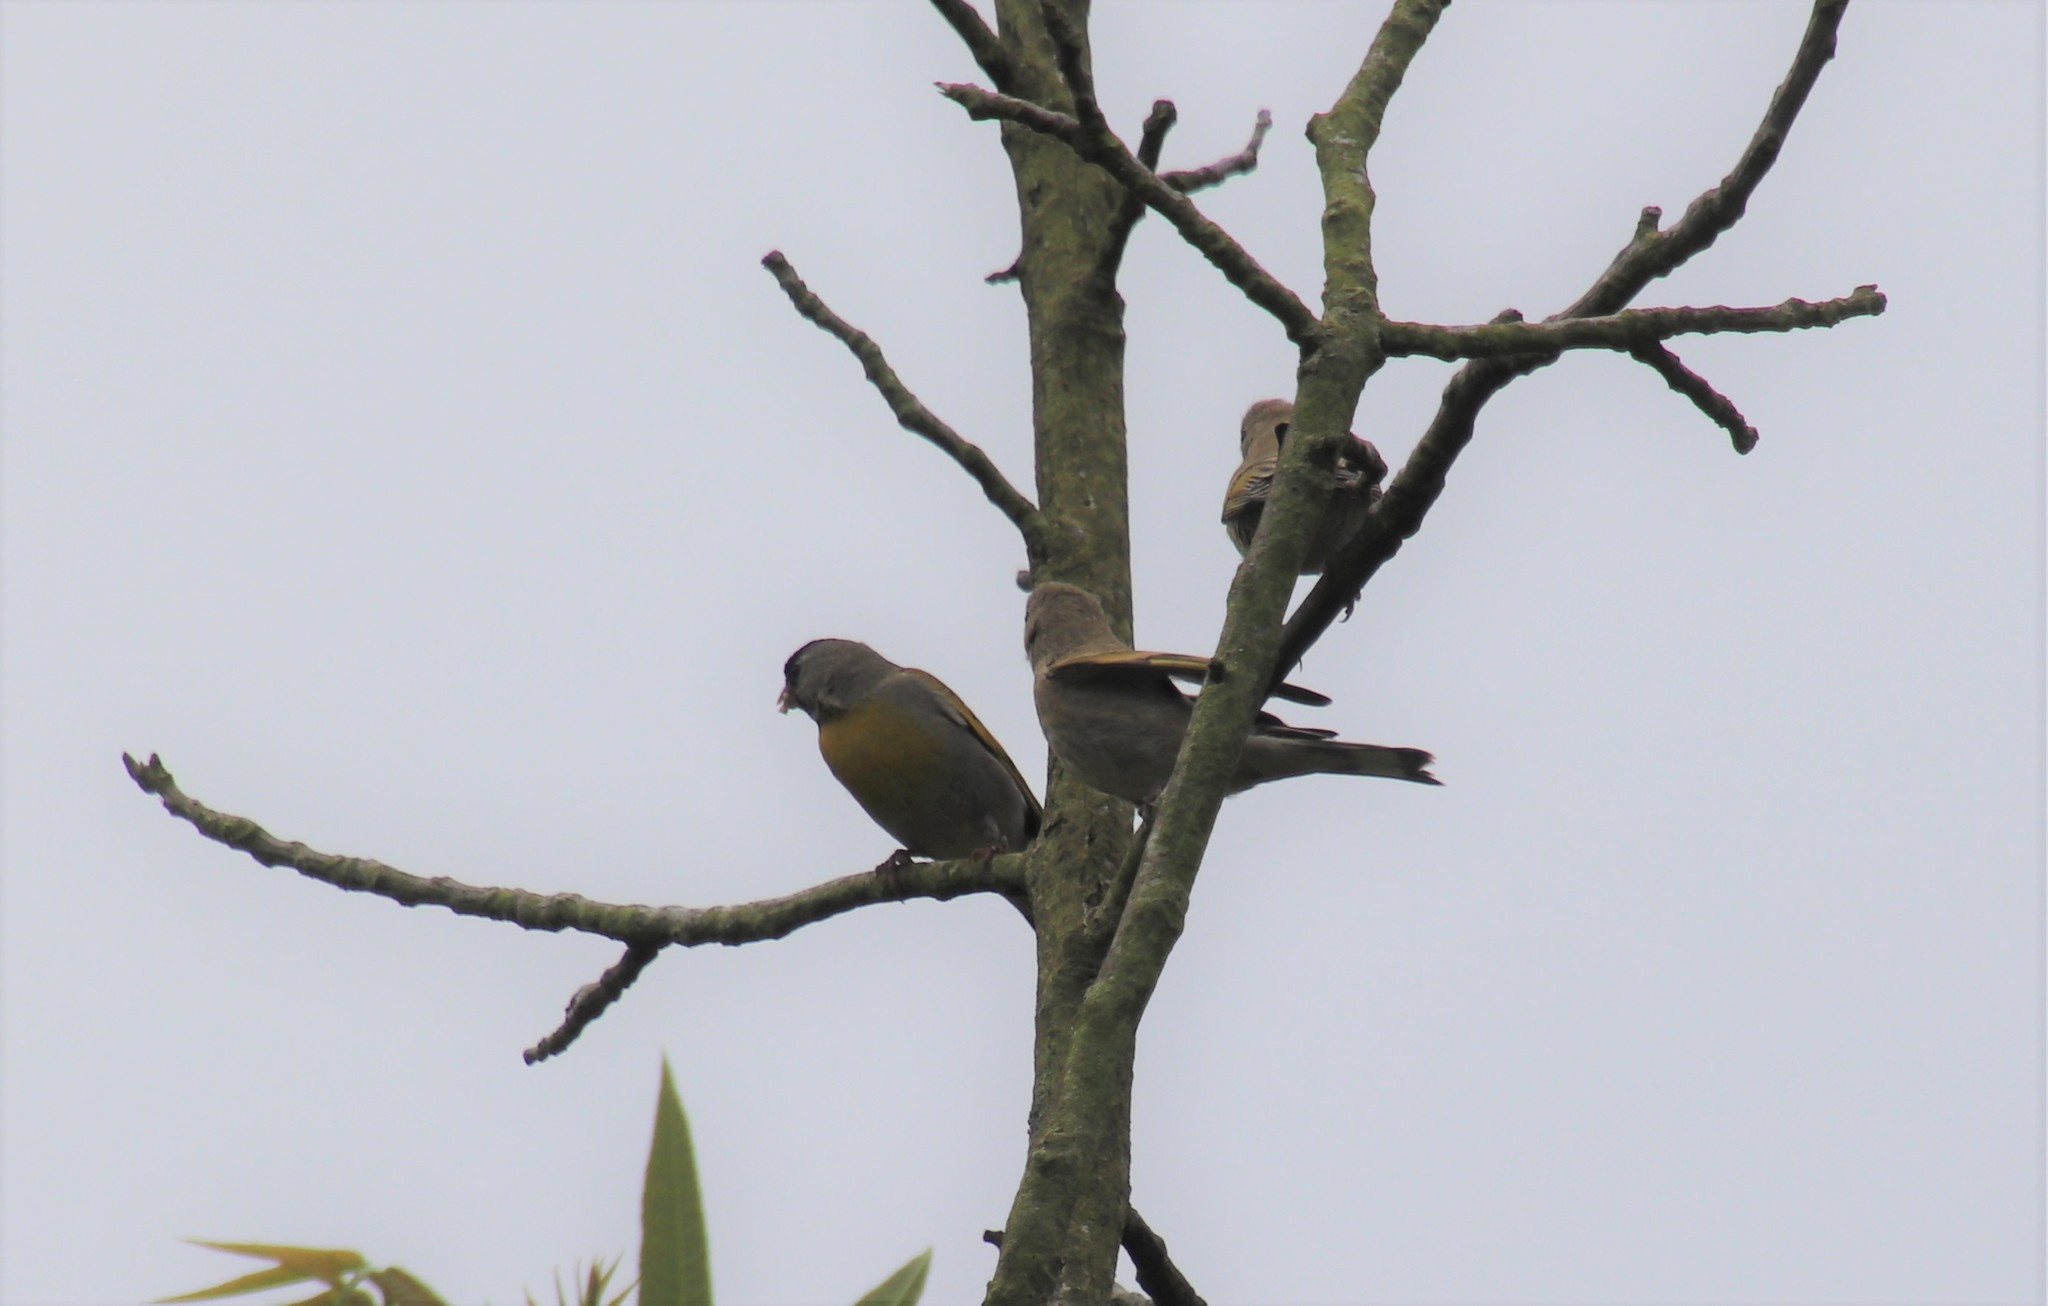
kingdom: Animalia
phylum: Chordata
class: Aves
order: Passeriformes
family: Fringillidae
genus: Spinus
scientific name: Spinus lawrencei
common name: Lawrence's goldfinch
